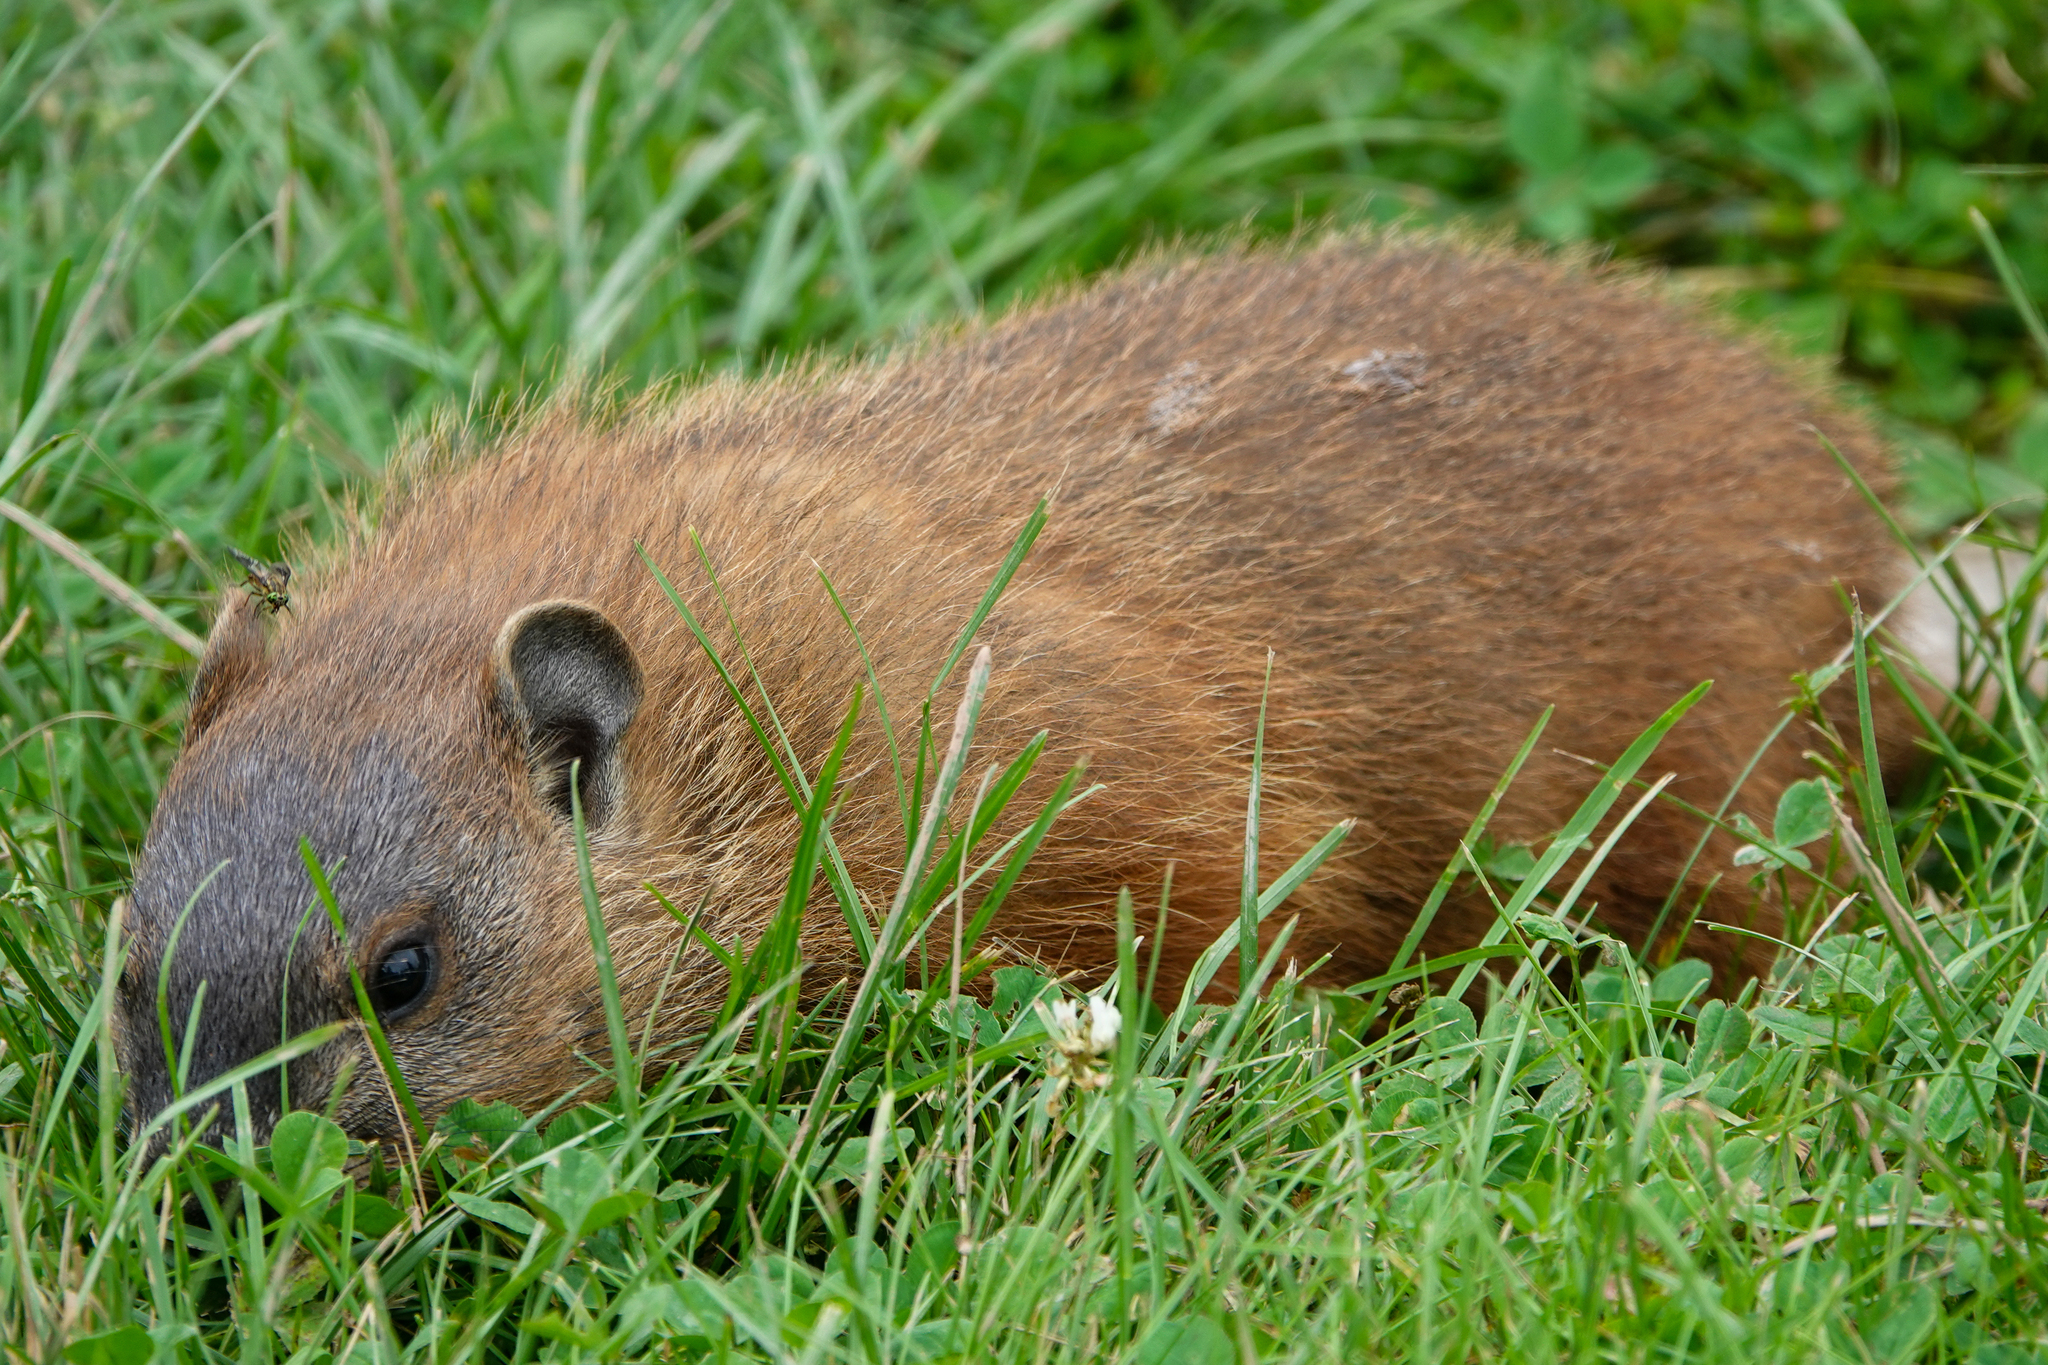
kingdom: Animalia
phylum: Chordata
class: Mammalia
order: Rodentia
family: Sciuridae
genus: Marmota
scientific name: Marmota monax
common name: Groundhog
